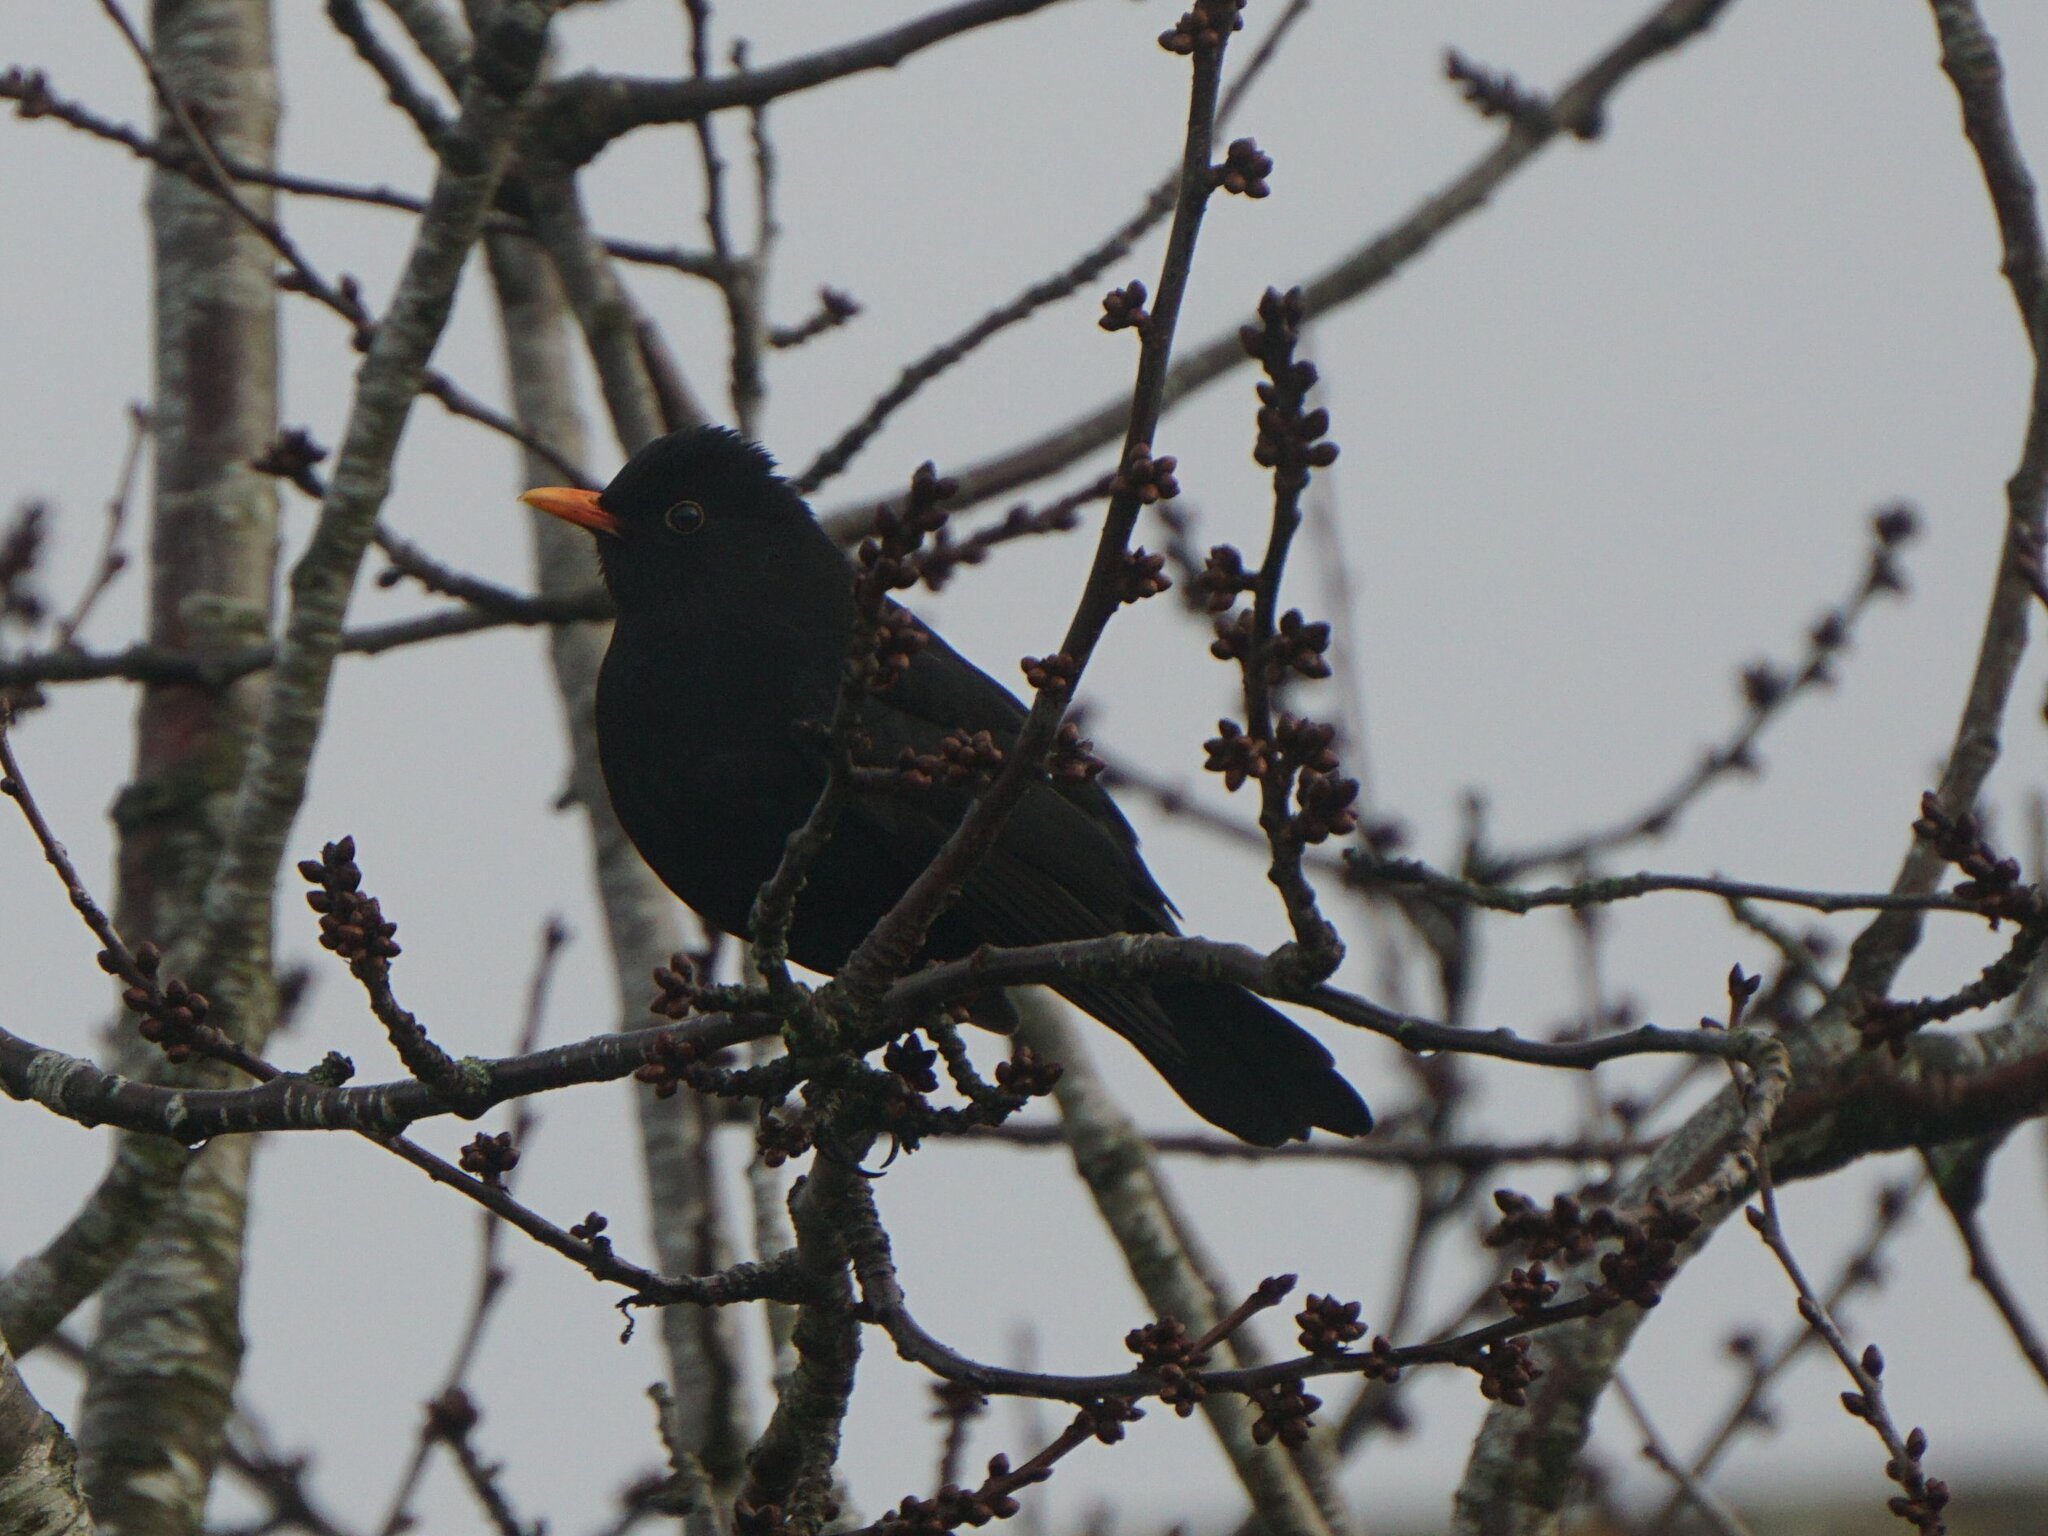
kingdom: Animalia
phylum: Chordata
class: Aves
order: Passeriformes
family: Turdidae
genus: Turdus
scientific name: Turdus merula
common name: Common blackbird
